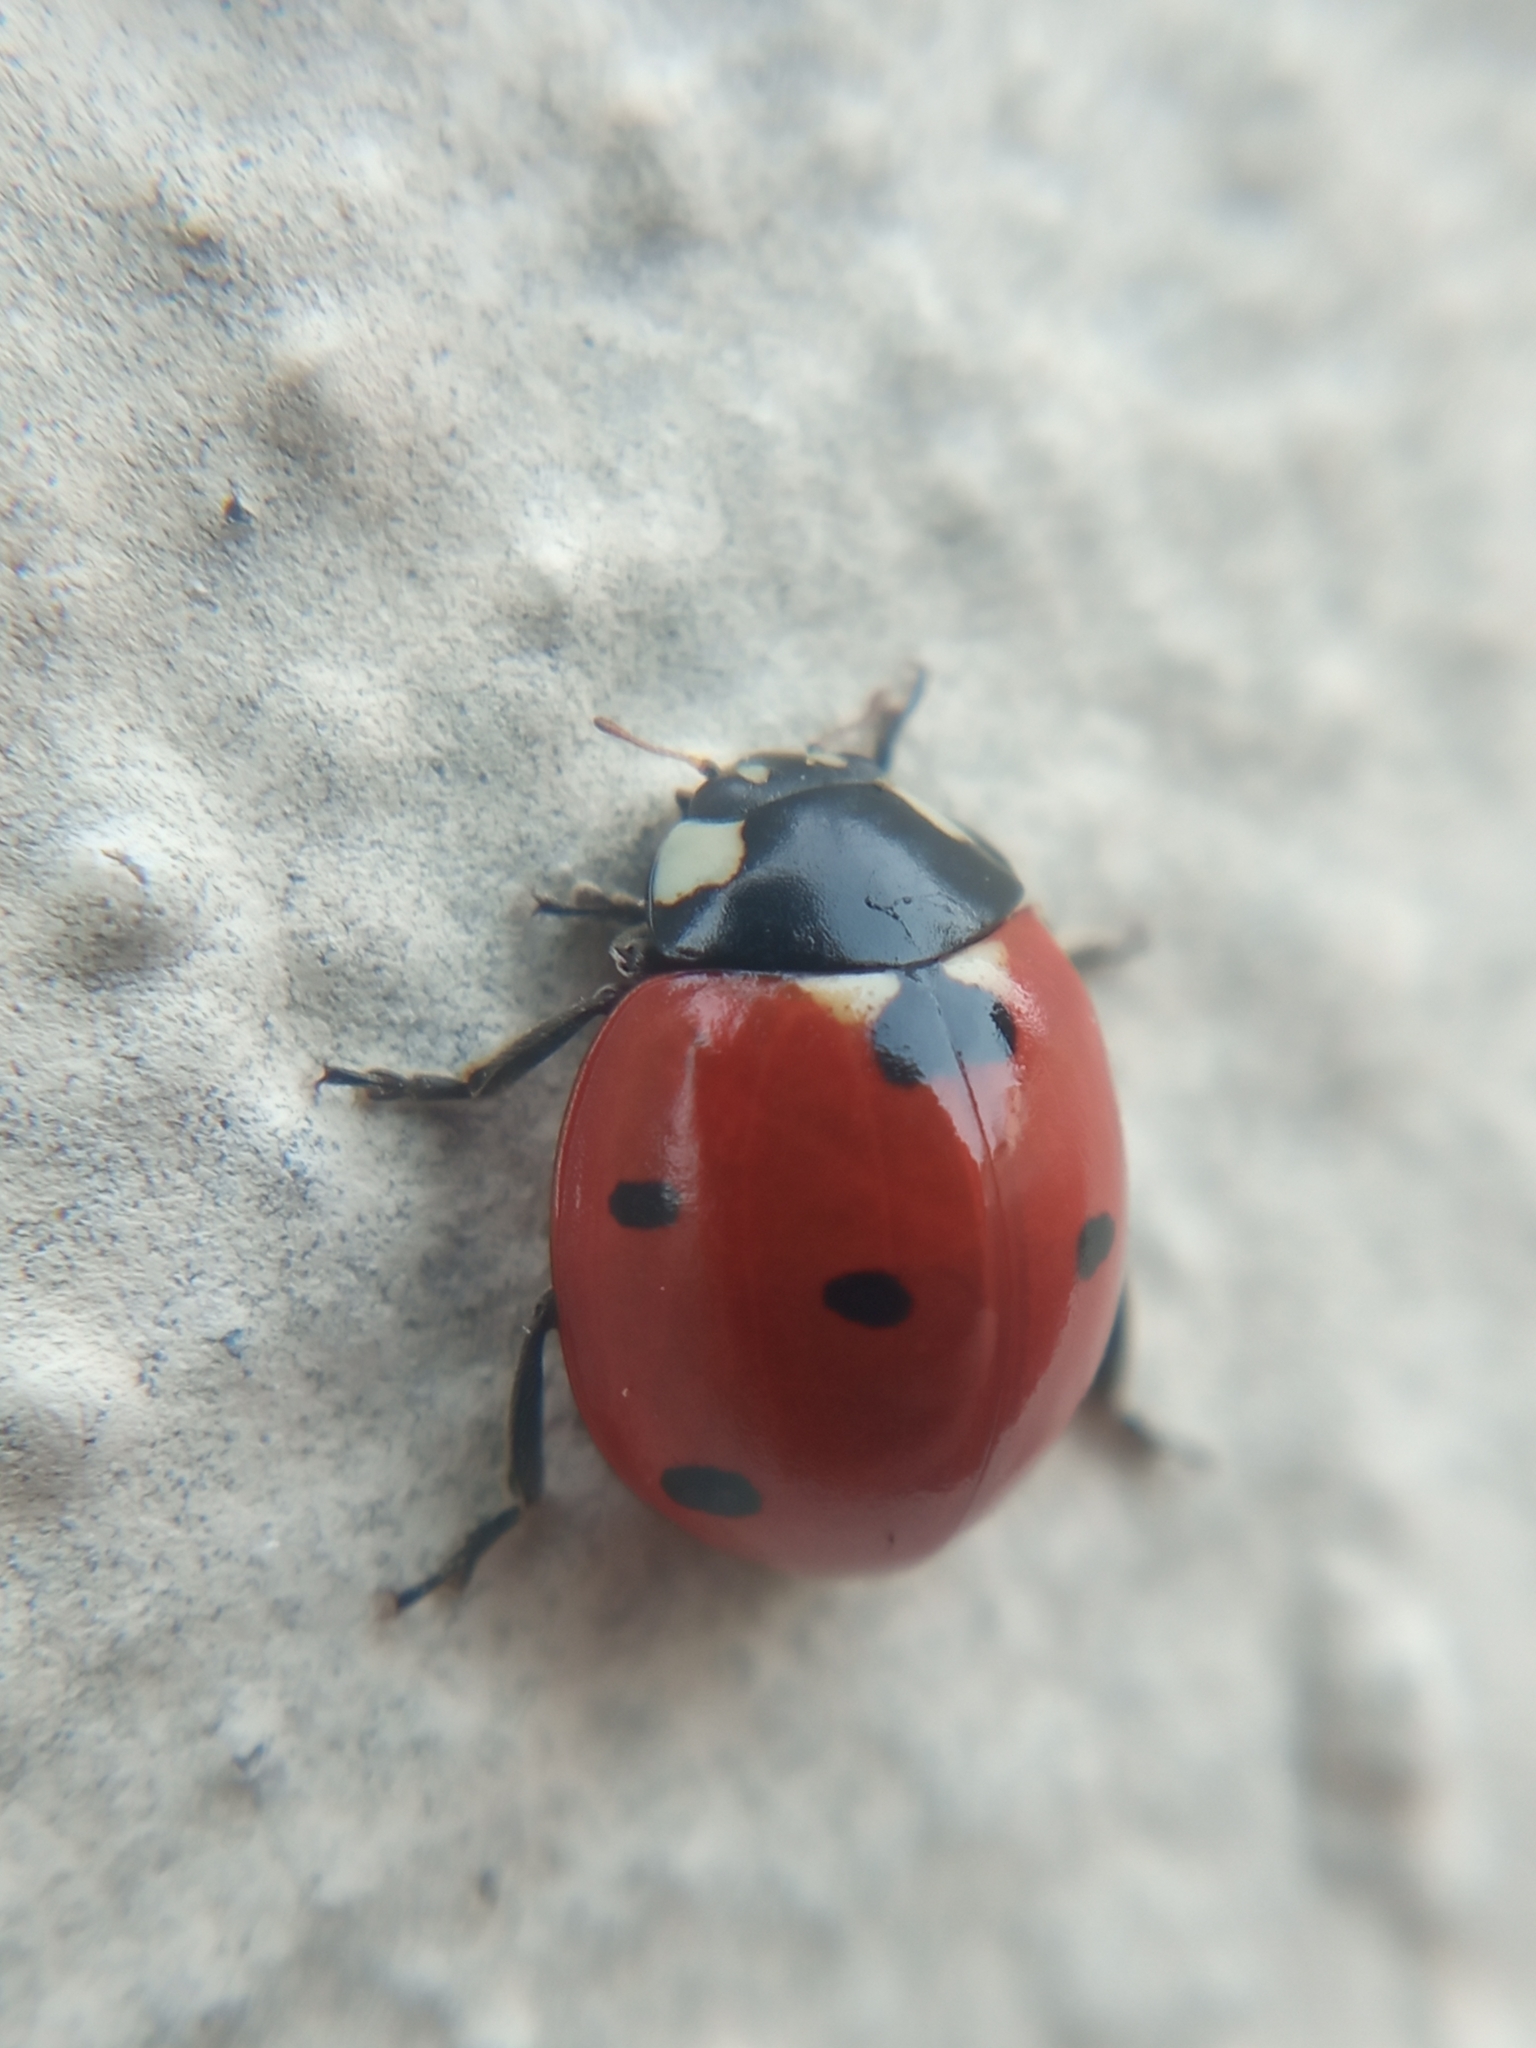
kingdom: Animalia
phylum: Arthropoda
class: Insecta
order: Coleoptera
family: Coccinellidae
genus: Coccinella
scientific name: Coccinella septempunctata
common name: Sevenspotted lady beetle
